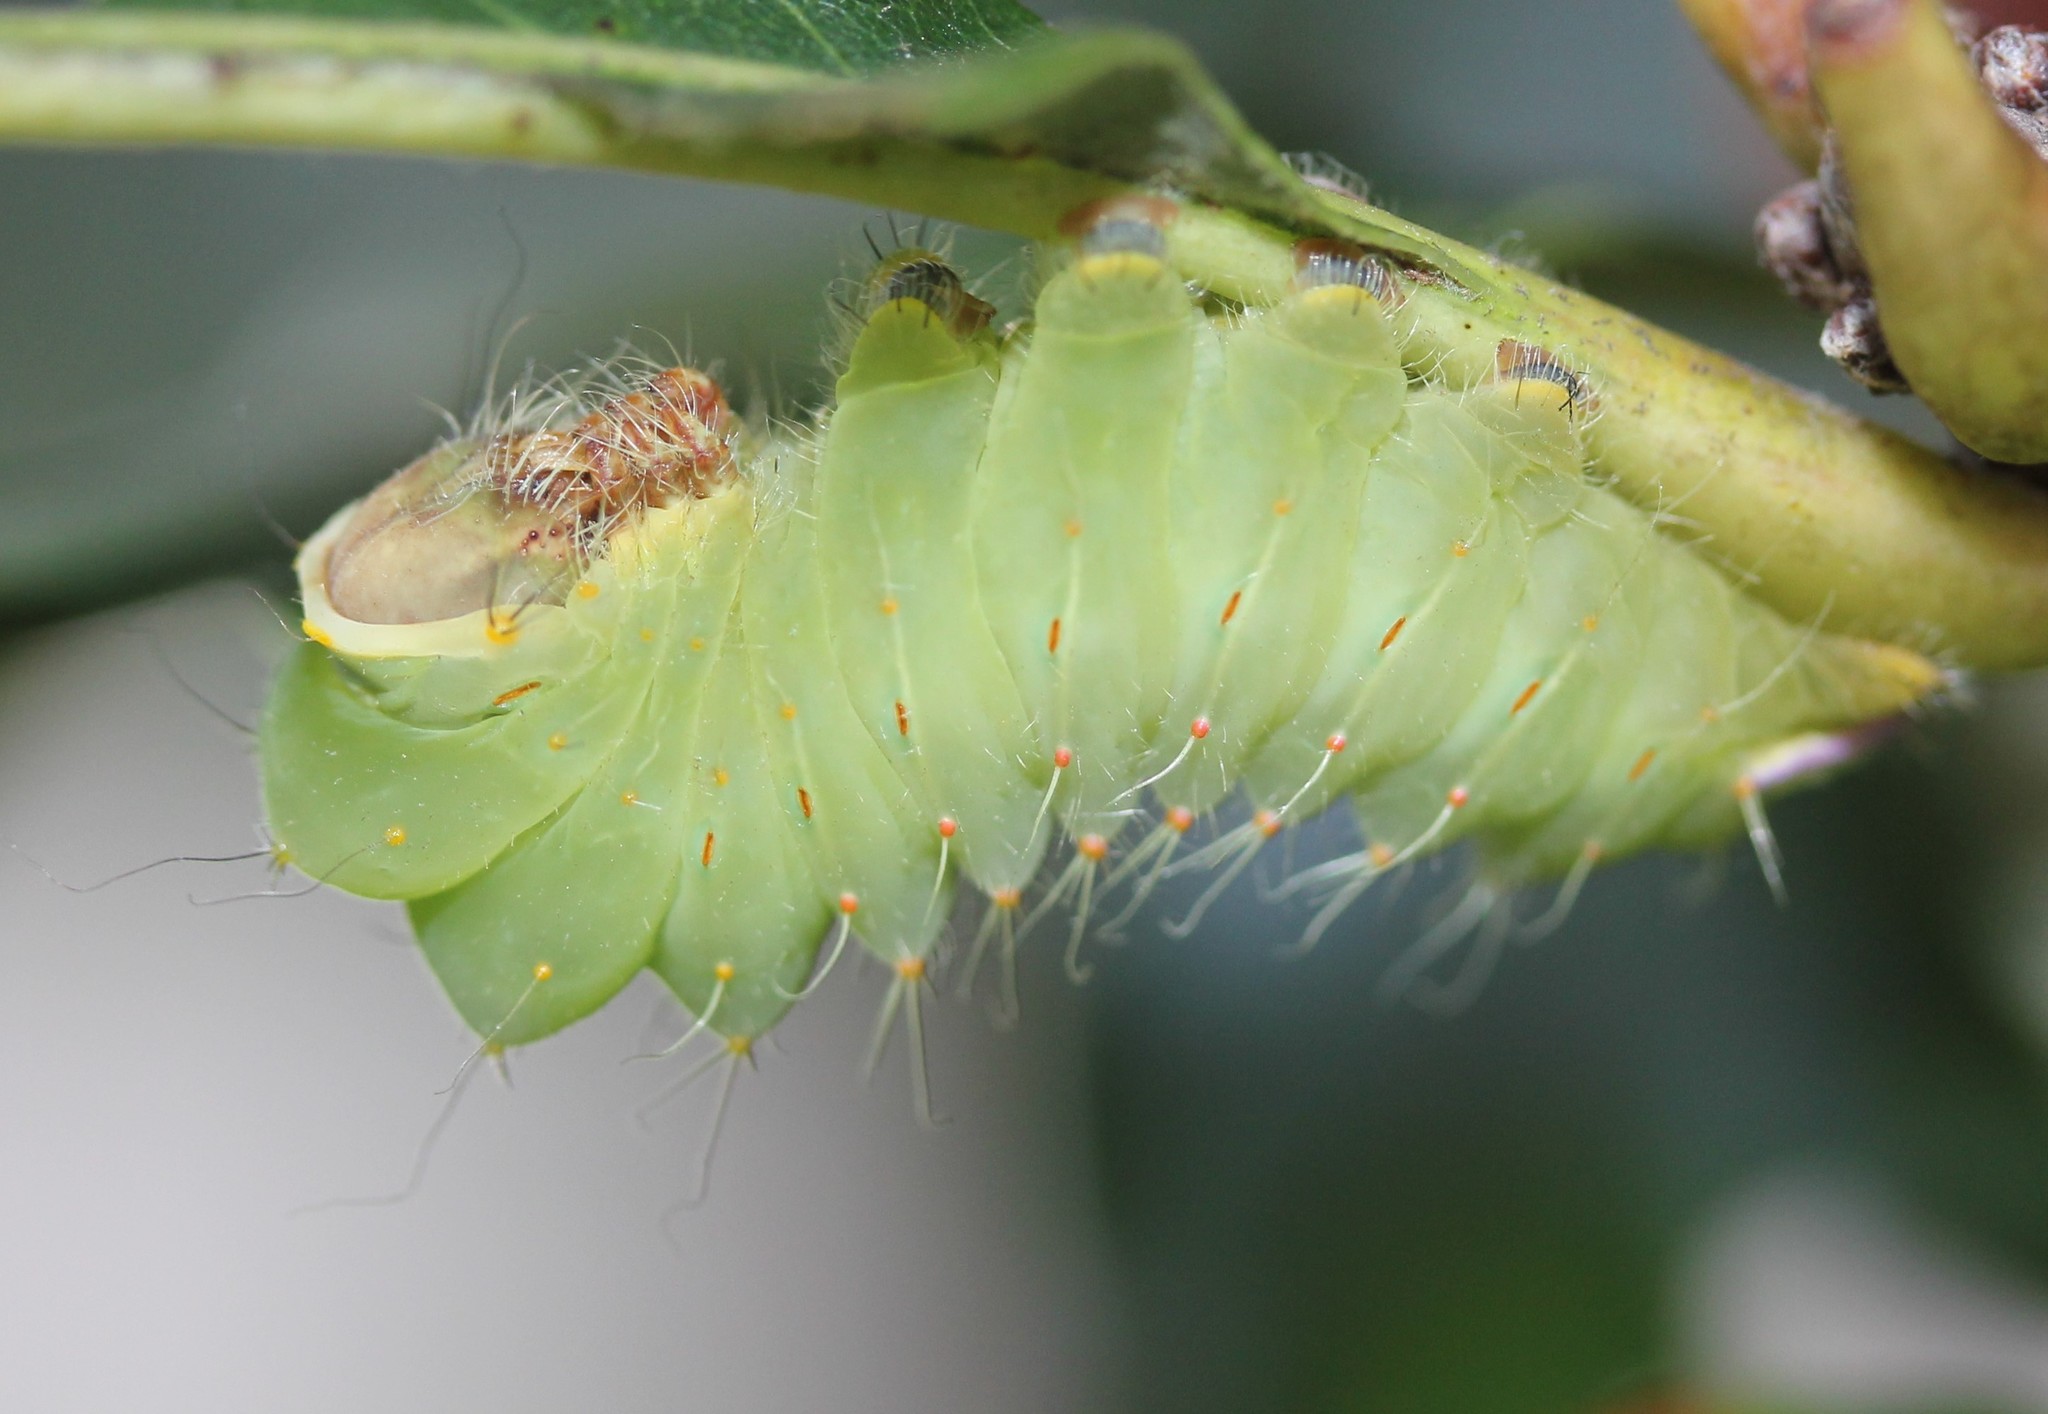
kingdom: Animalia
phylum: Arthropoda
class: Insecta
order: Lepidoptera
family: Saturniidae
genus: Antheraea
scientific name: Antheraea polyphemus
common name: Polyphemus moth
